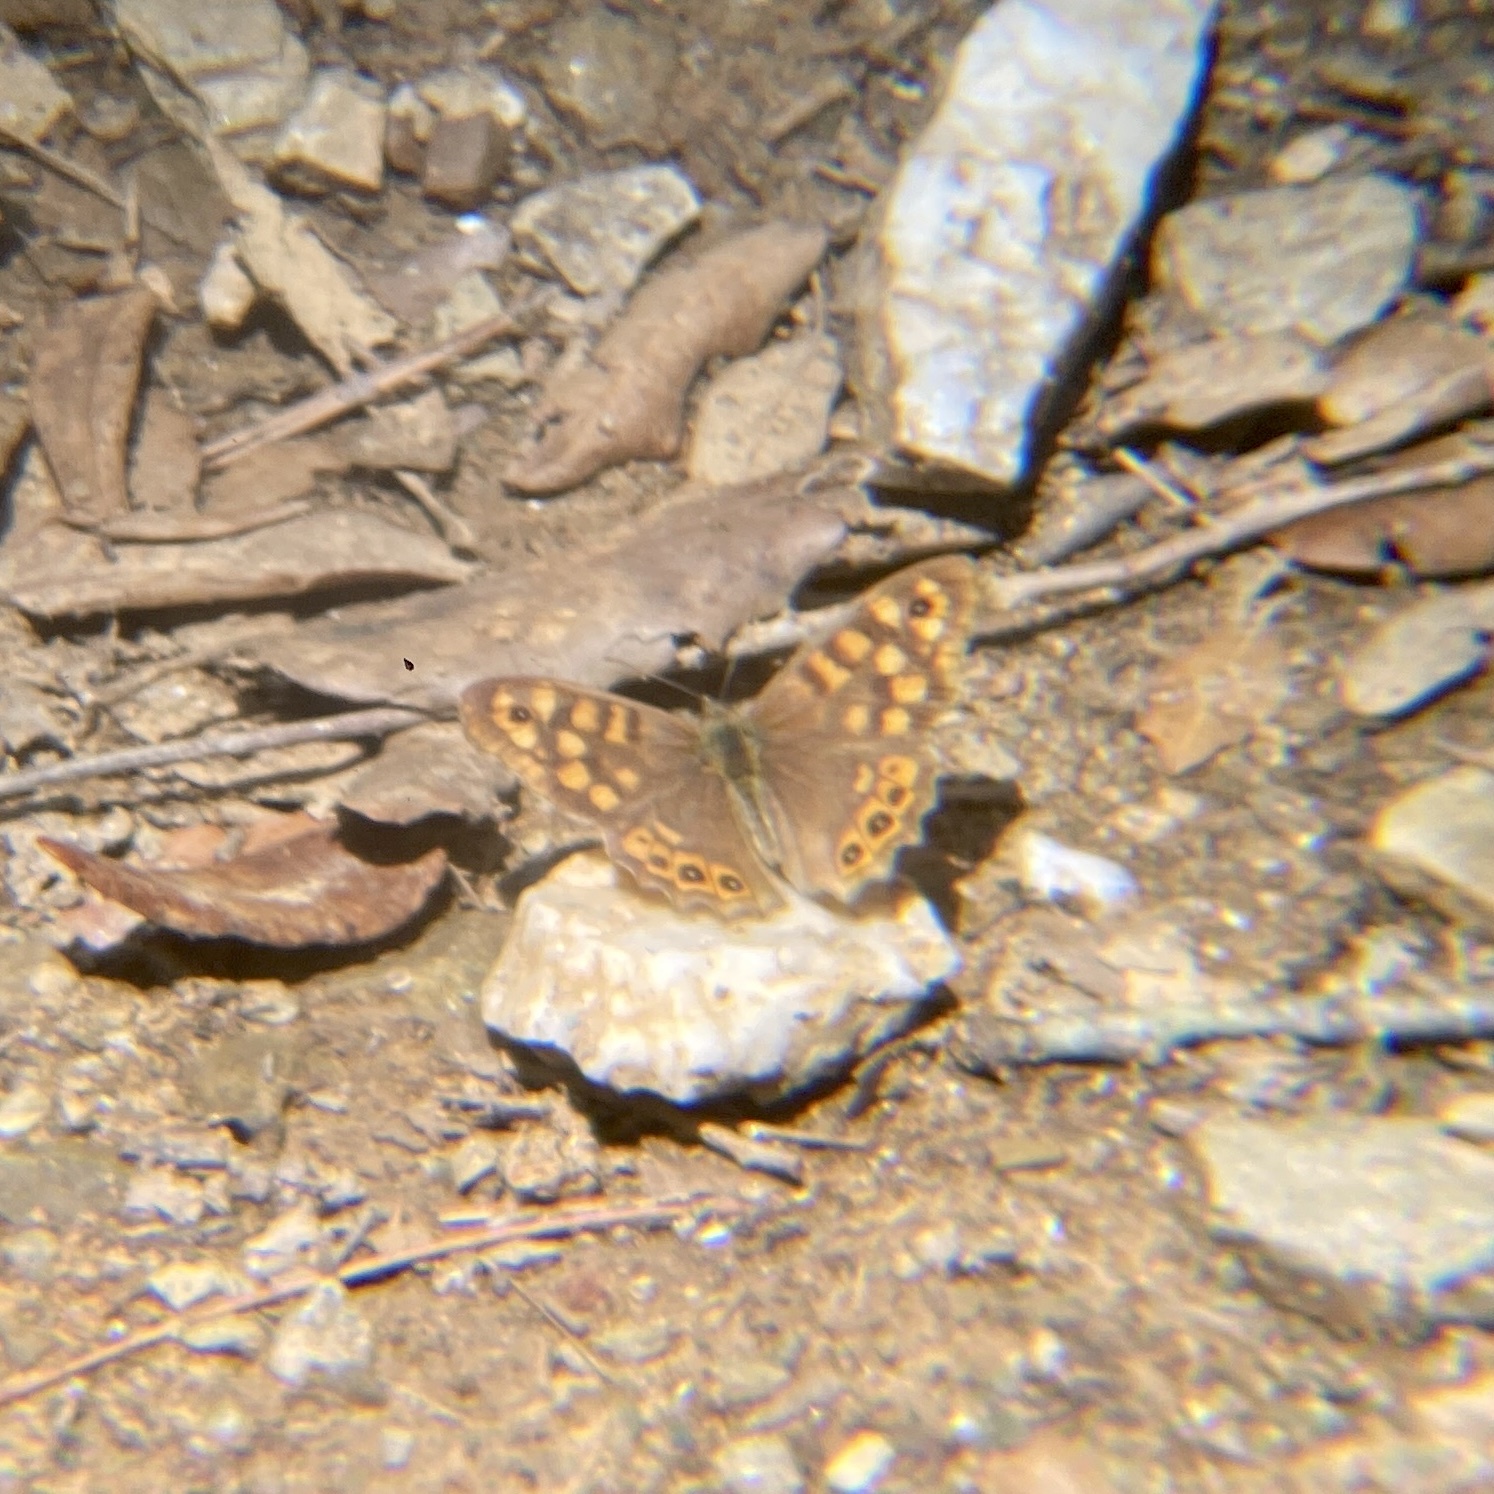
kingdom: Animalia
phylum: Arthropoda
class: Insecta
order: Lepidoptera
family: Nymphalidae
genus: Pararge
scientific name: Pararge aegeria
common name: Speckled wood
